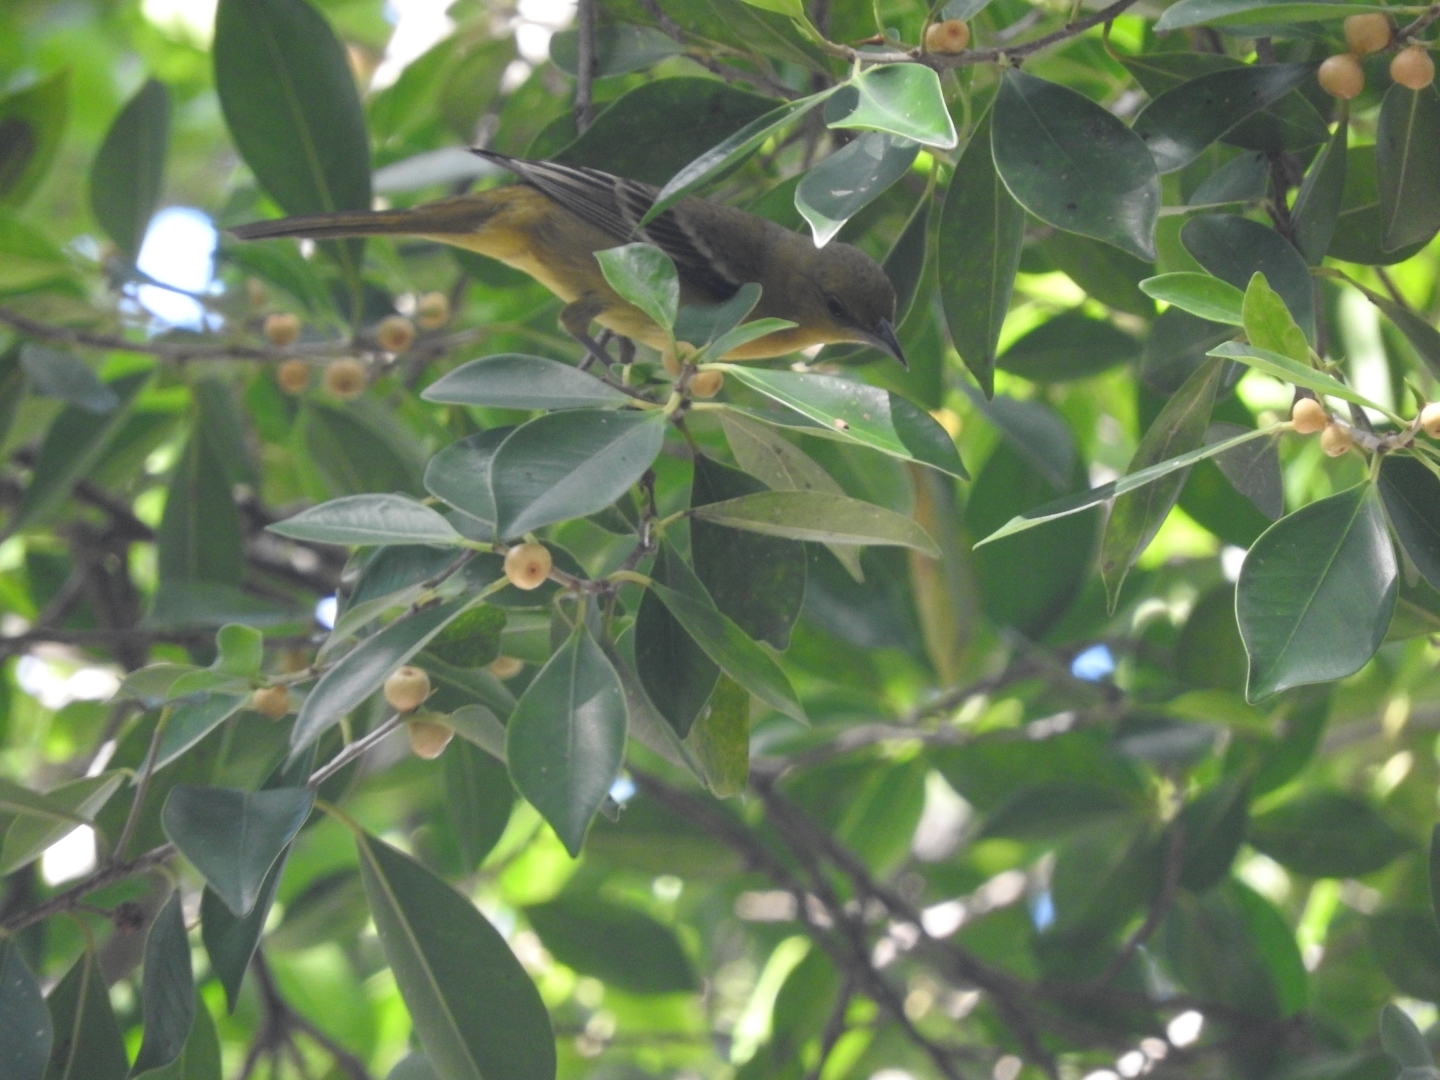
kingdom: Animalia
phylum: Chordata
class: Aves
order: Passeriformes
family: Icteridae
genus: Icterus
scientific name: Icterus galbula
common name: Baltimore oriole
